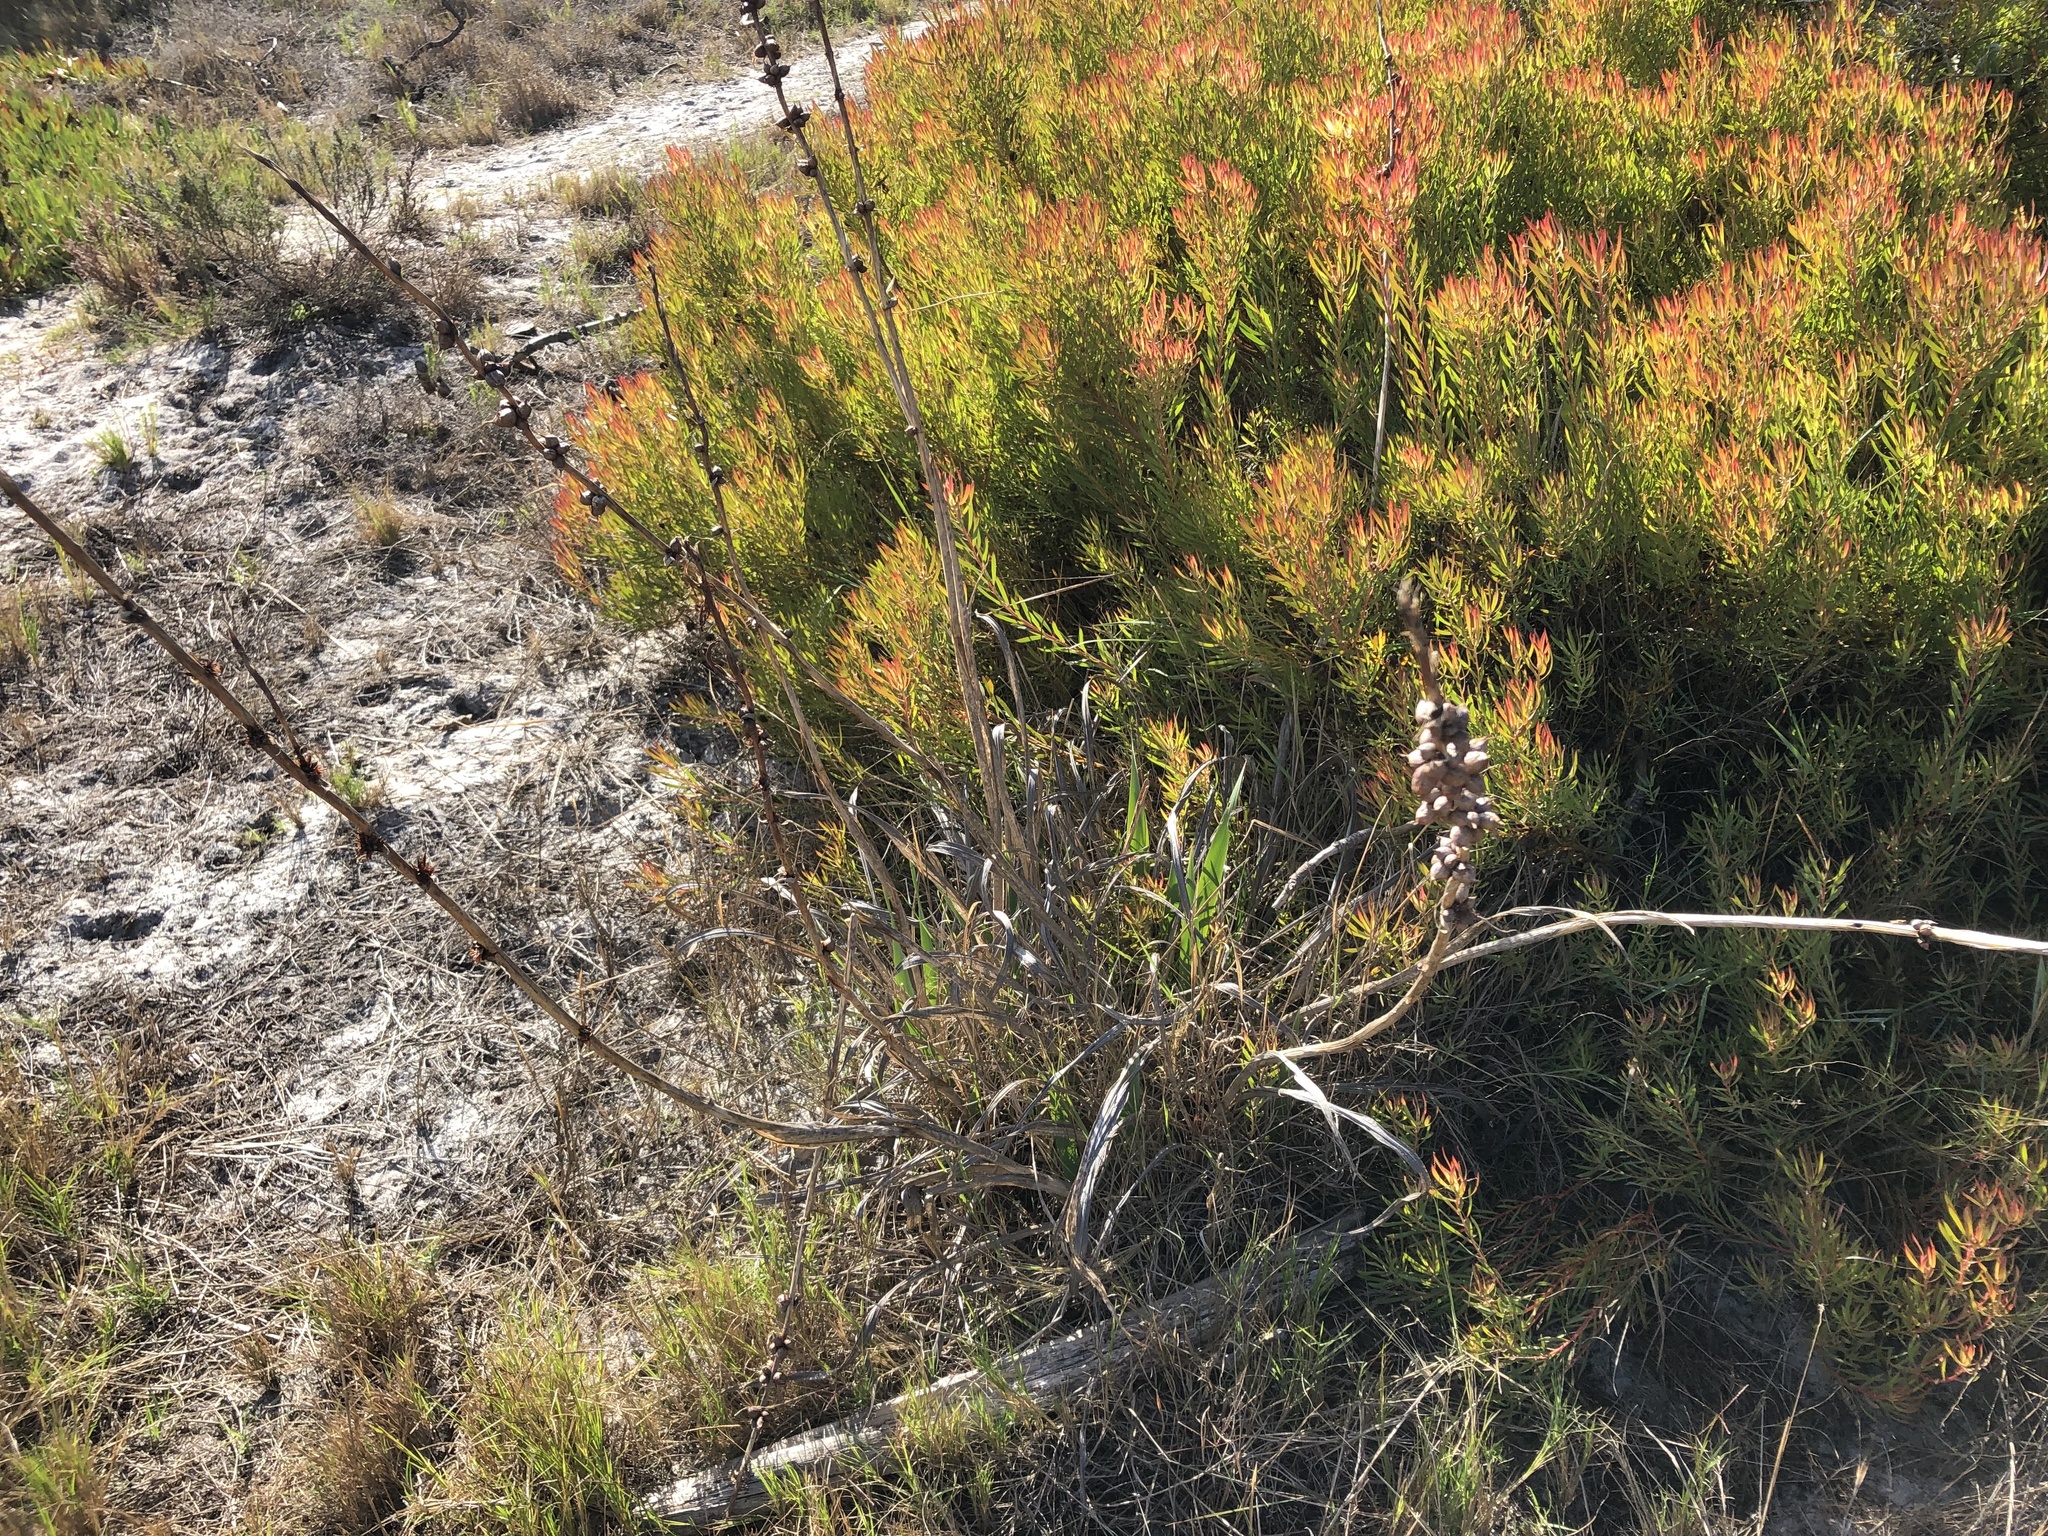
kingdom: Plantae
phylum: Tracheophyta
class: Magnoliopsida
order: Proteales
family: Proteaceae
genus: Leucadendron
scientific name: Leucadendron salignum
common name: Common sunshine conebush
